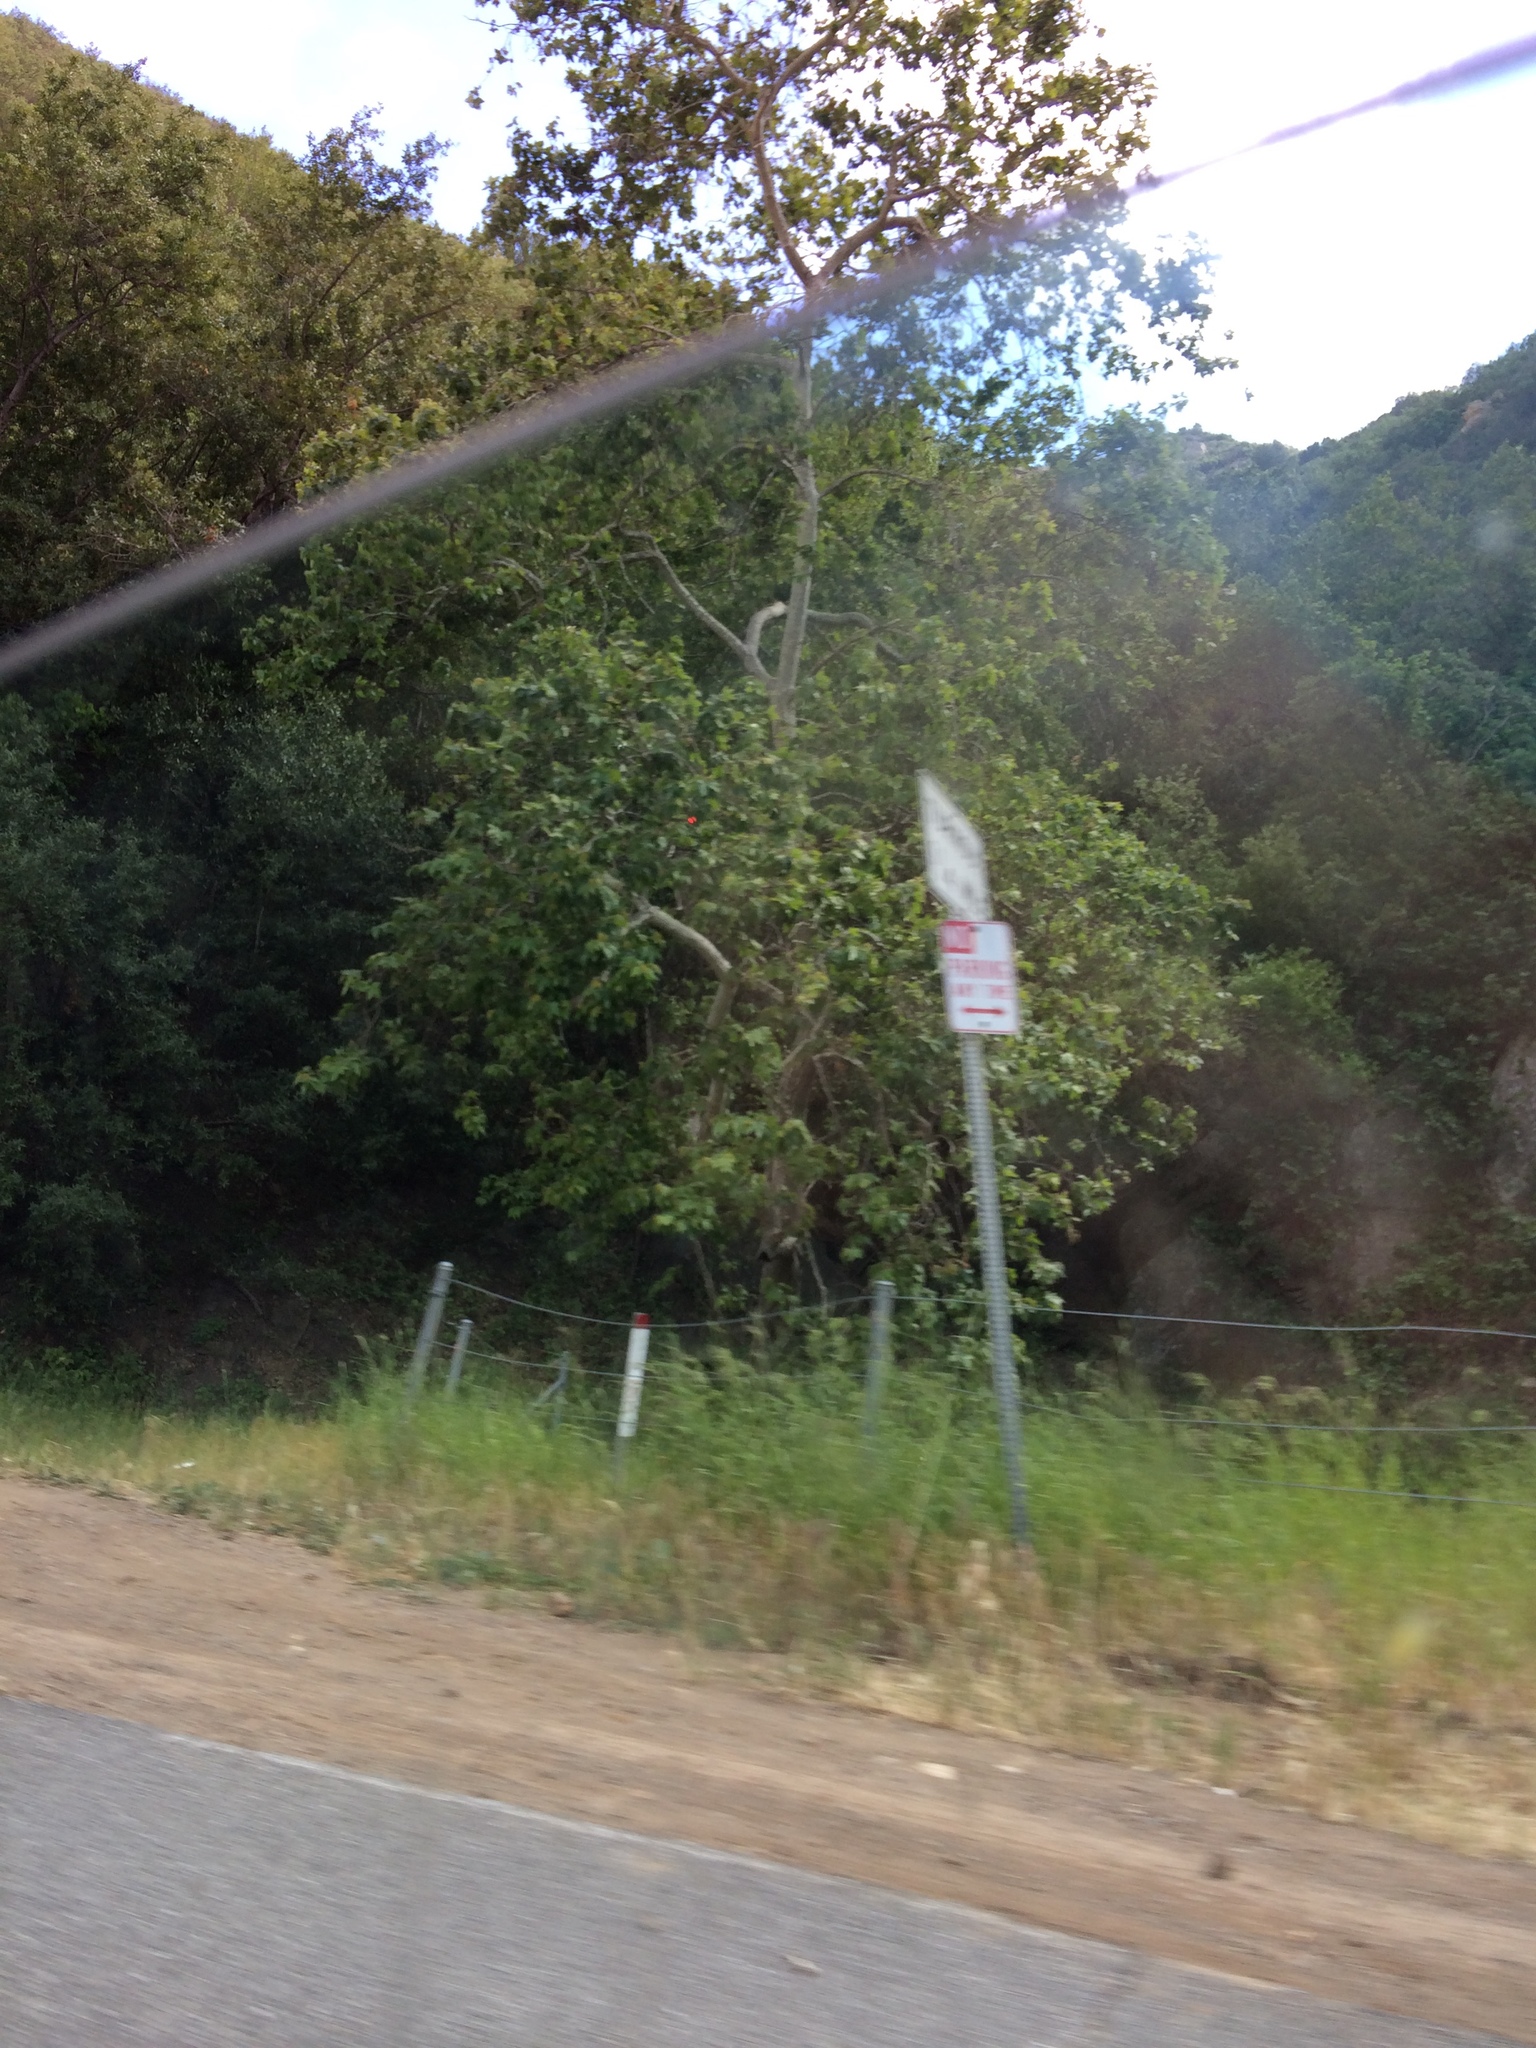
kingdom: Plantae
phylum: Tracheophyta
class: Magnoliopsida
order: Proteales
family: Platanaceae
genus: Platanus
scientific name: Platanus racemosa
